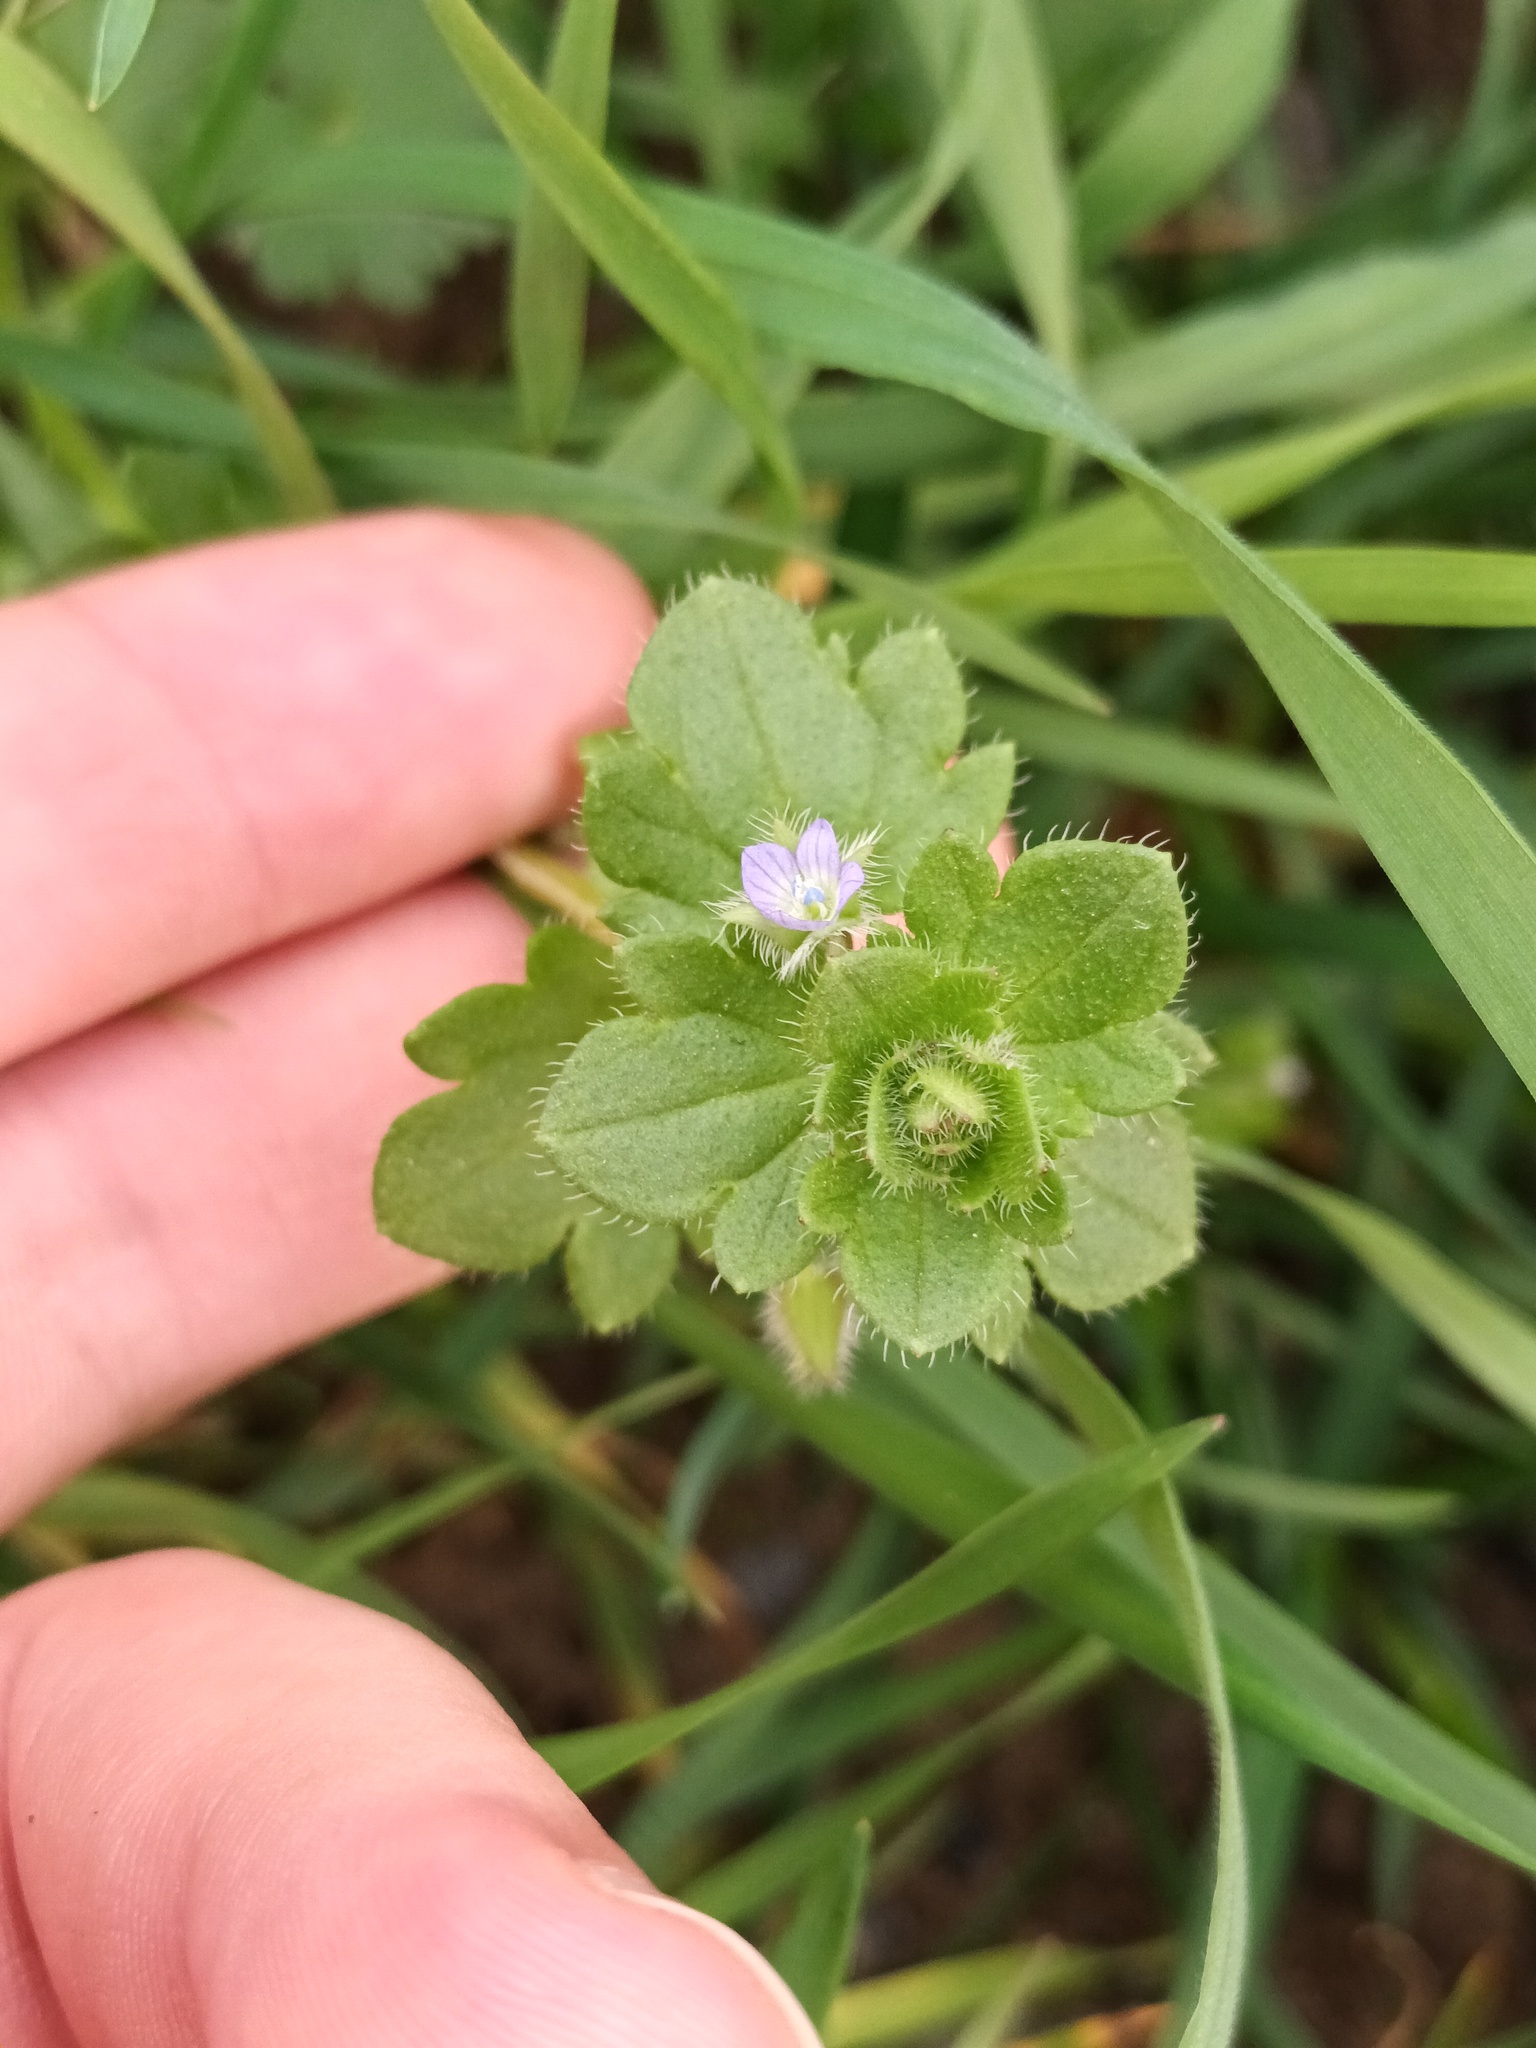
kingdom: Plantae
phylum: Tracheophyta
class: Magnoliopsida
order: Lamiales
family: Plantaginaceae
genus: Veronica
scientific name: Veronica sublobata
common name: False ivy-leaved speedwell
